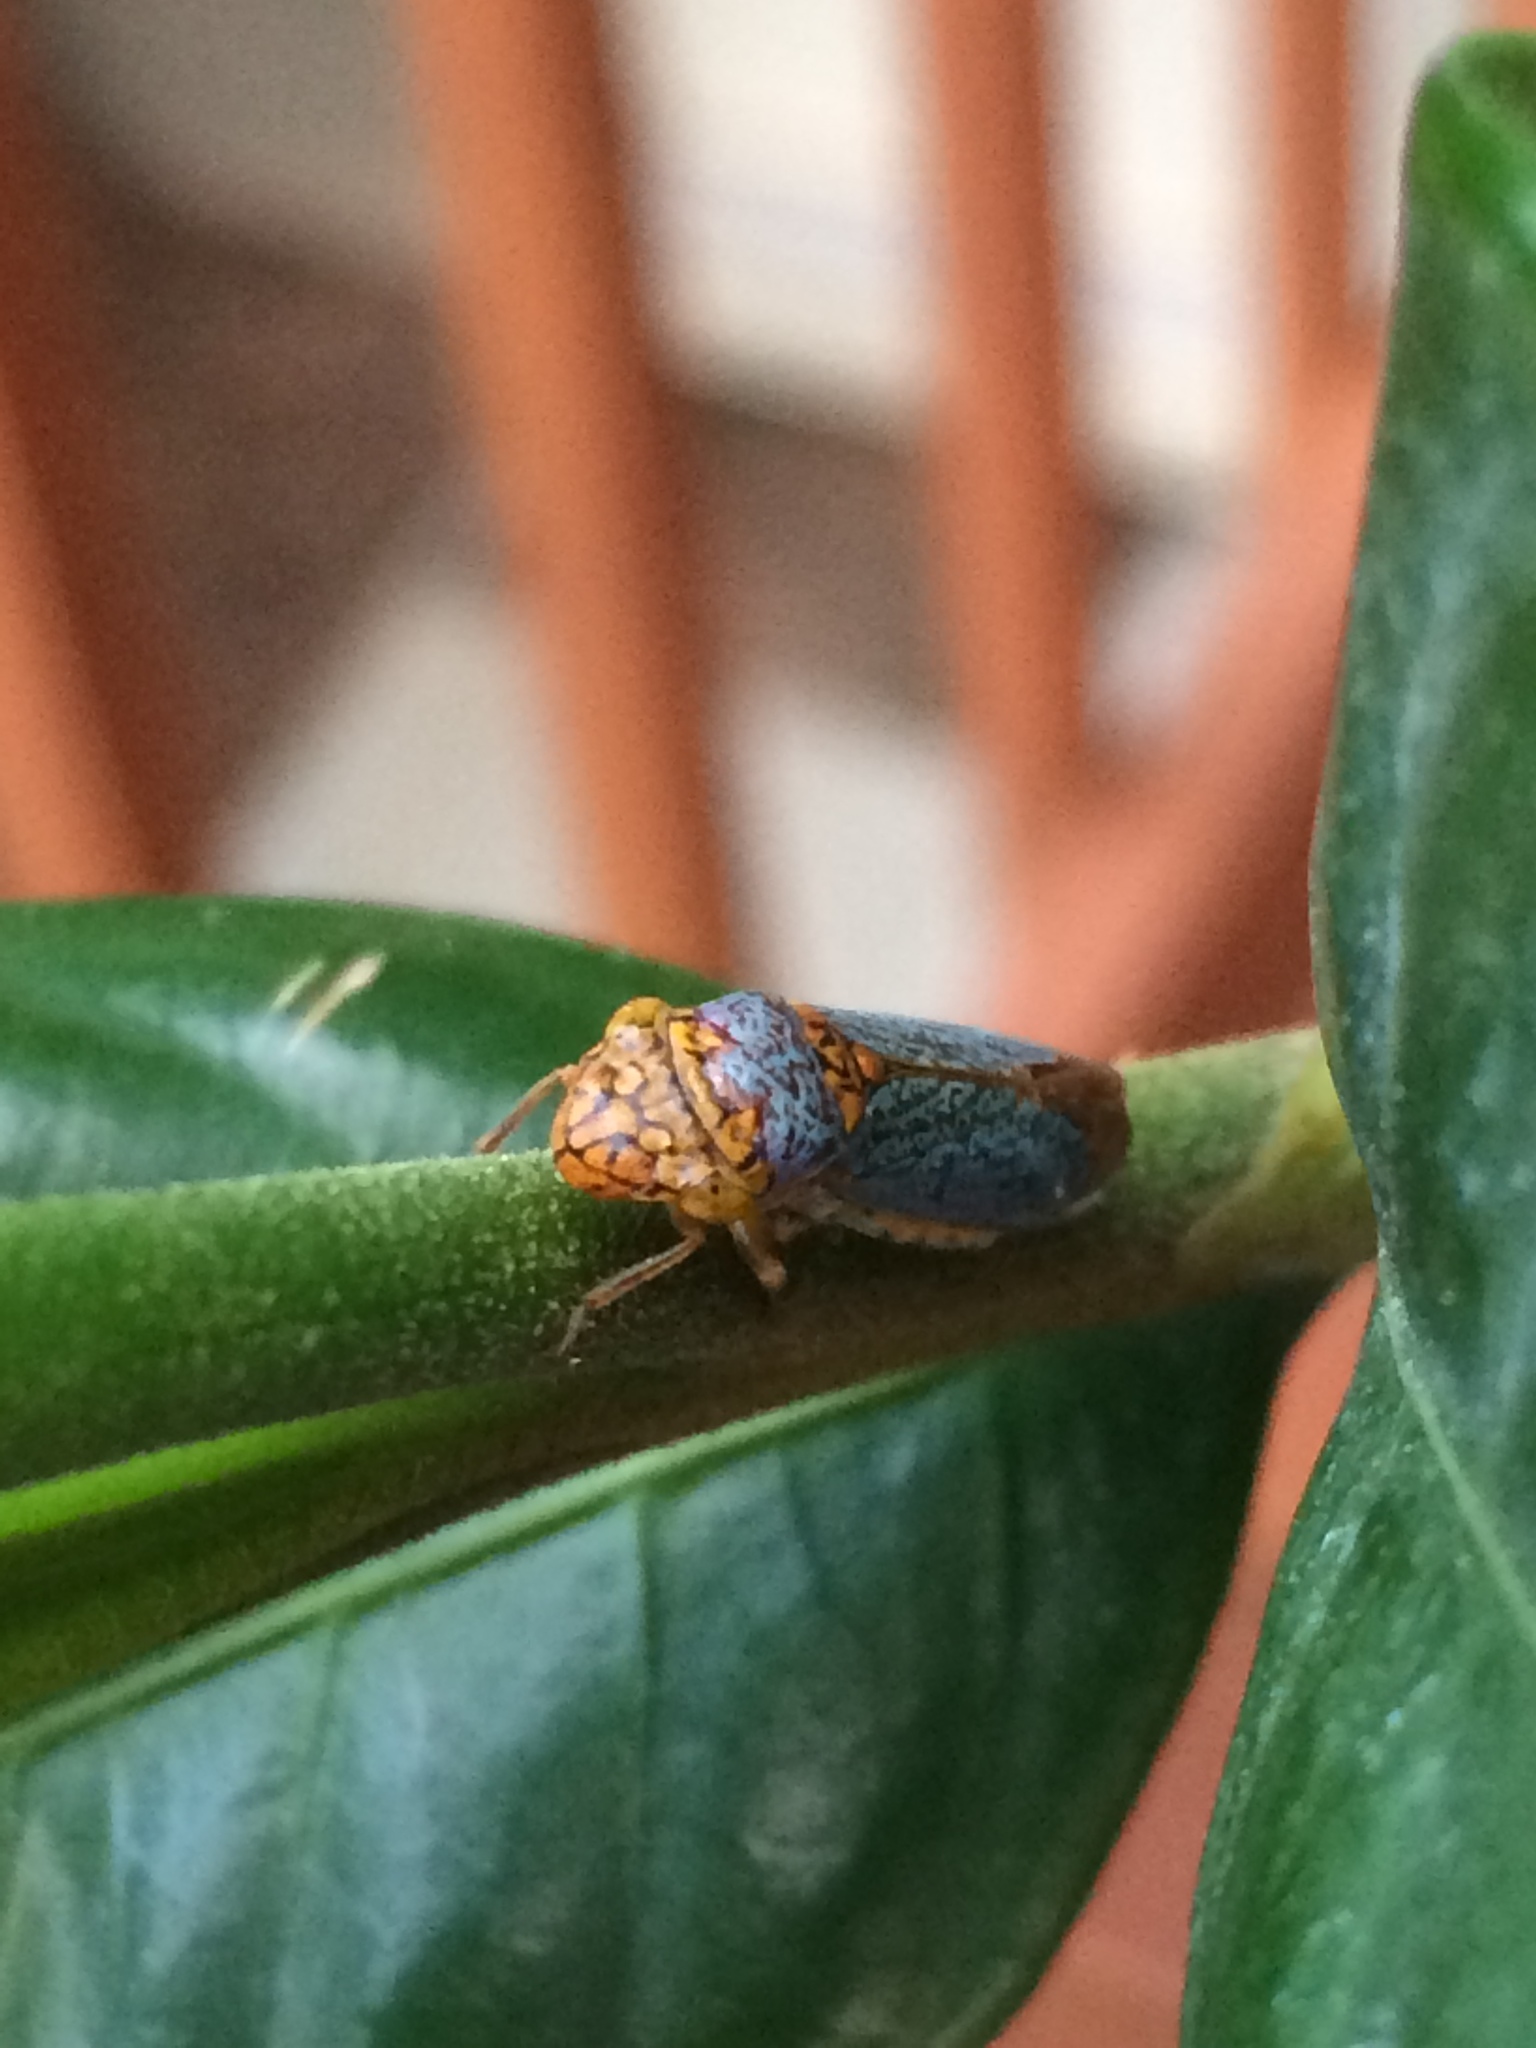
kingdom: Animalia
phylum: Arthropoda
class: Insecta
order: Hemiptera
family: Cicadellidae
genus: Oncometopia
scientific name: Oncometopia orbona
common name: Broad-headed sharpshooter
